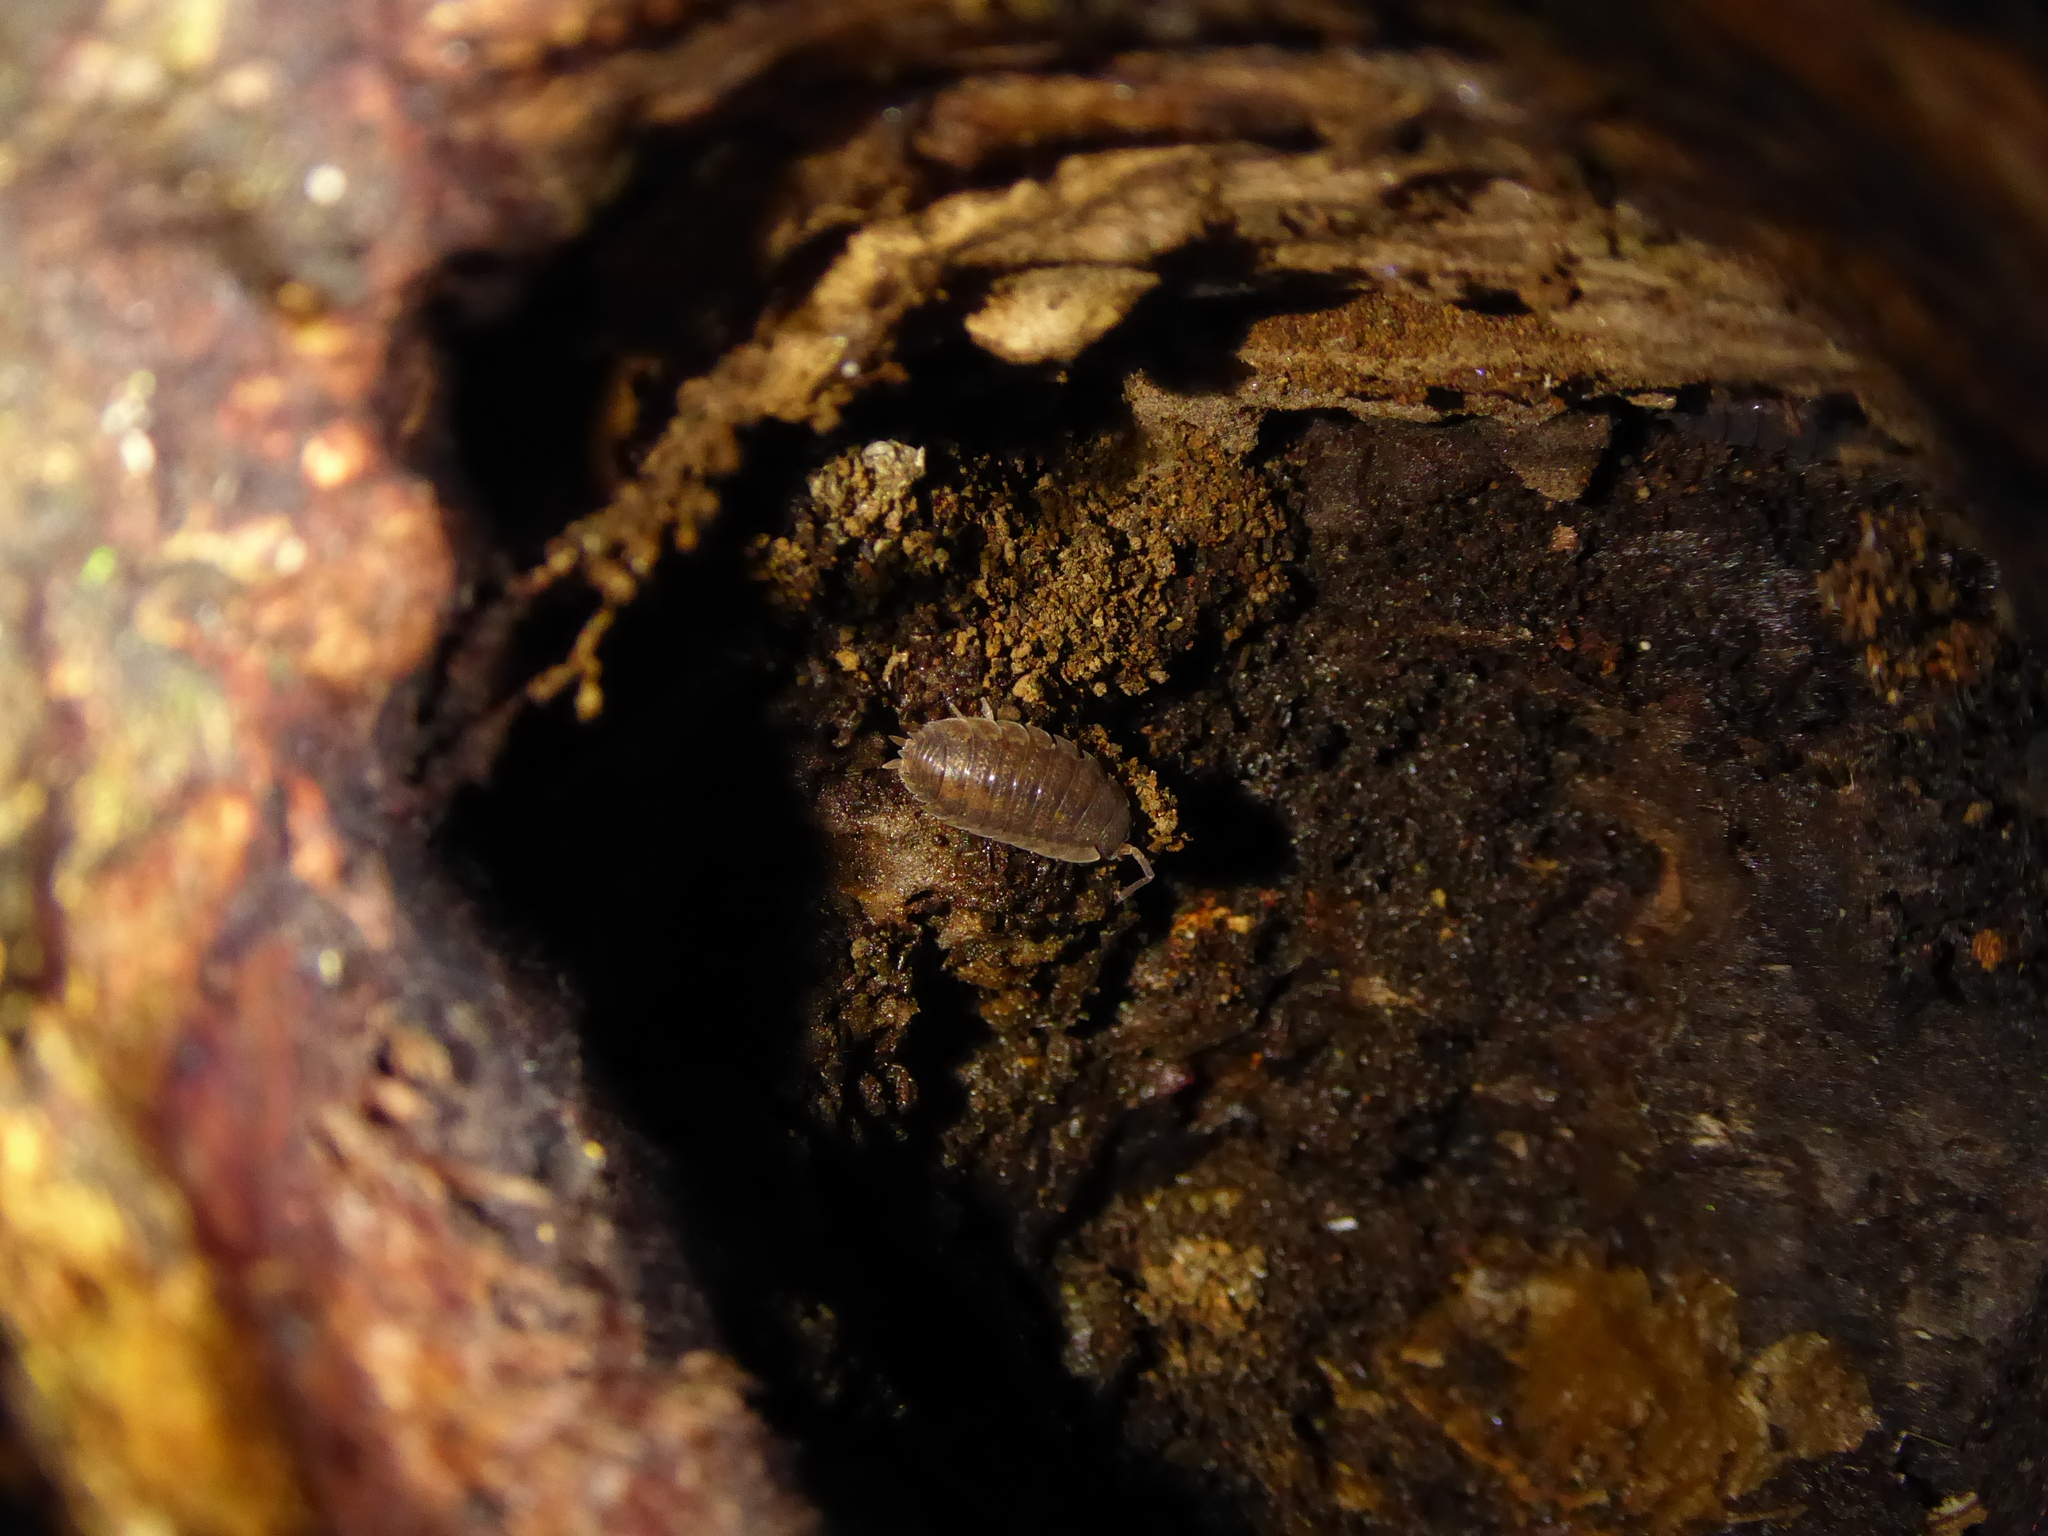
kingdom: Animalia
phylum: Arthropoda
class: Malacostraca
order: Isopoda
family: Porcellionidae
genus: Porcellio
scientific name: Porcellio scaber
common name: Common rough woodlouse
